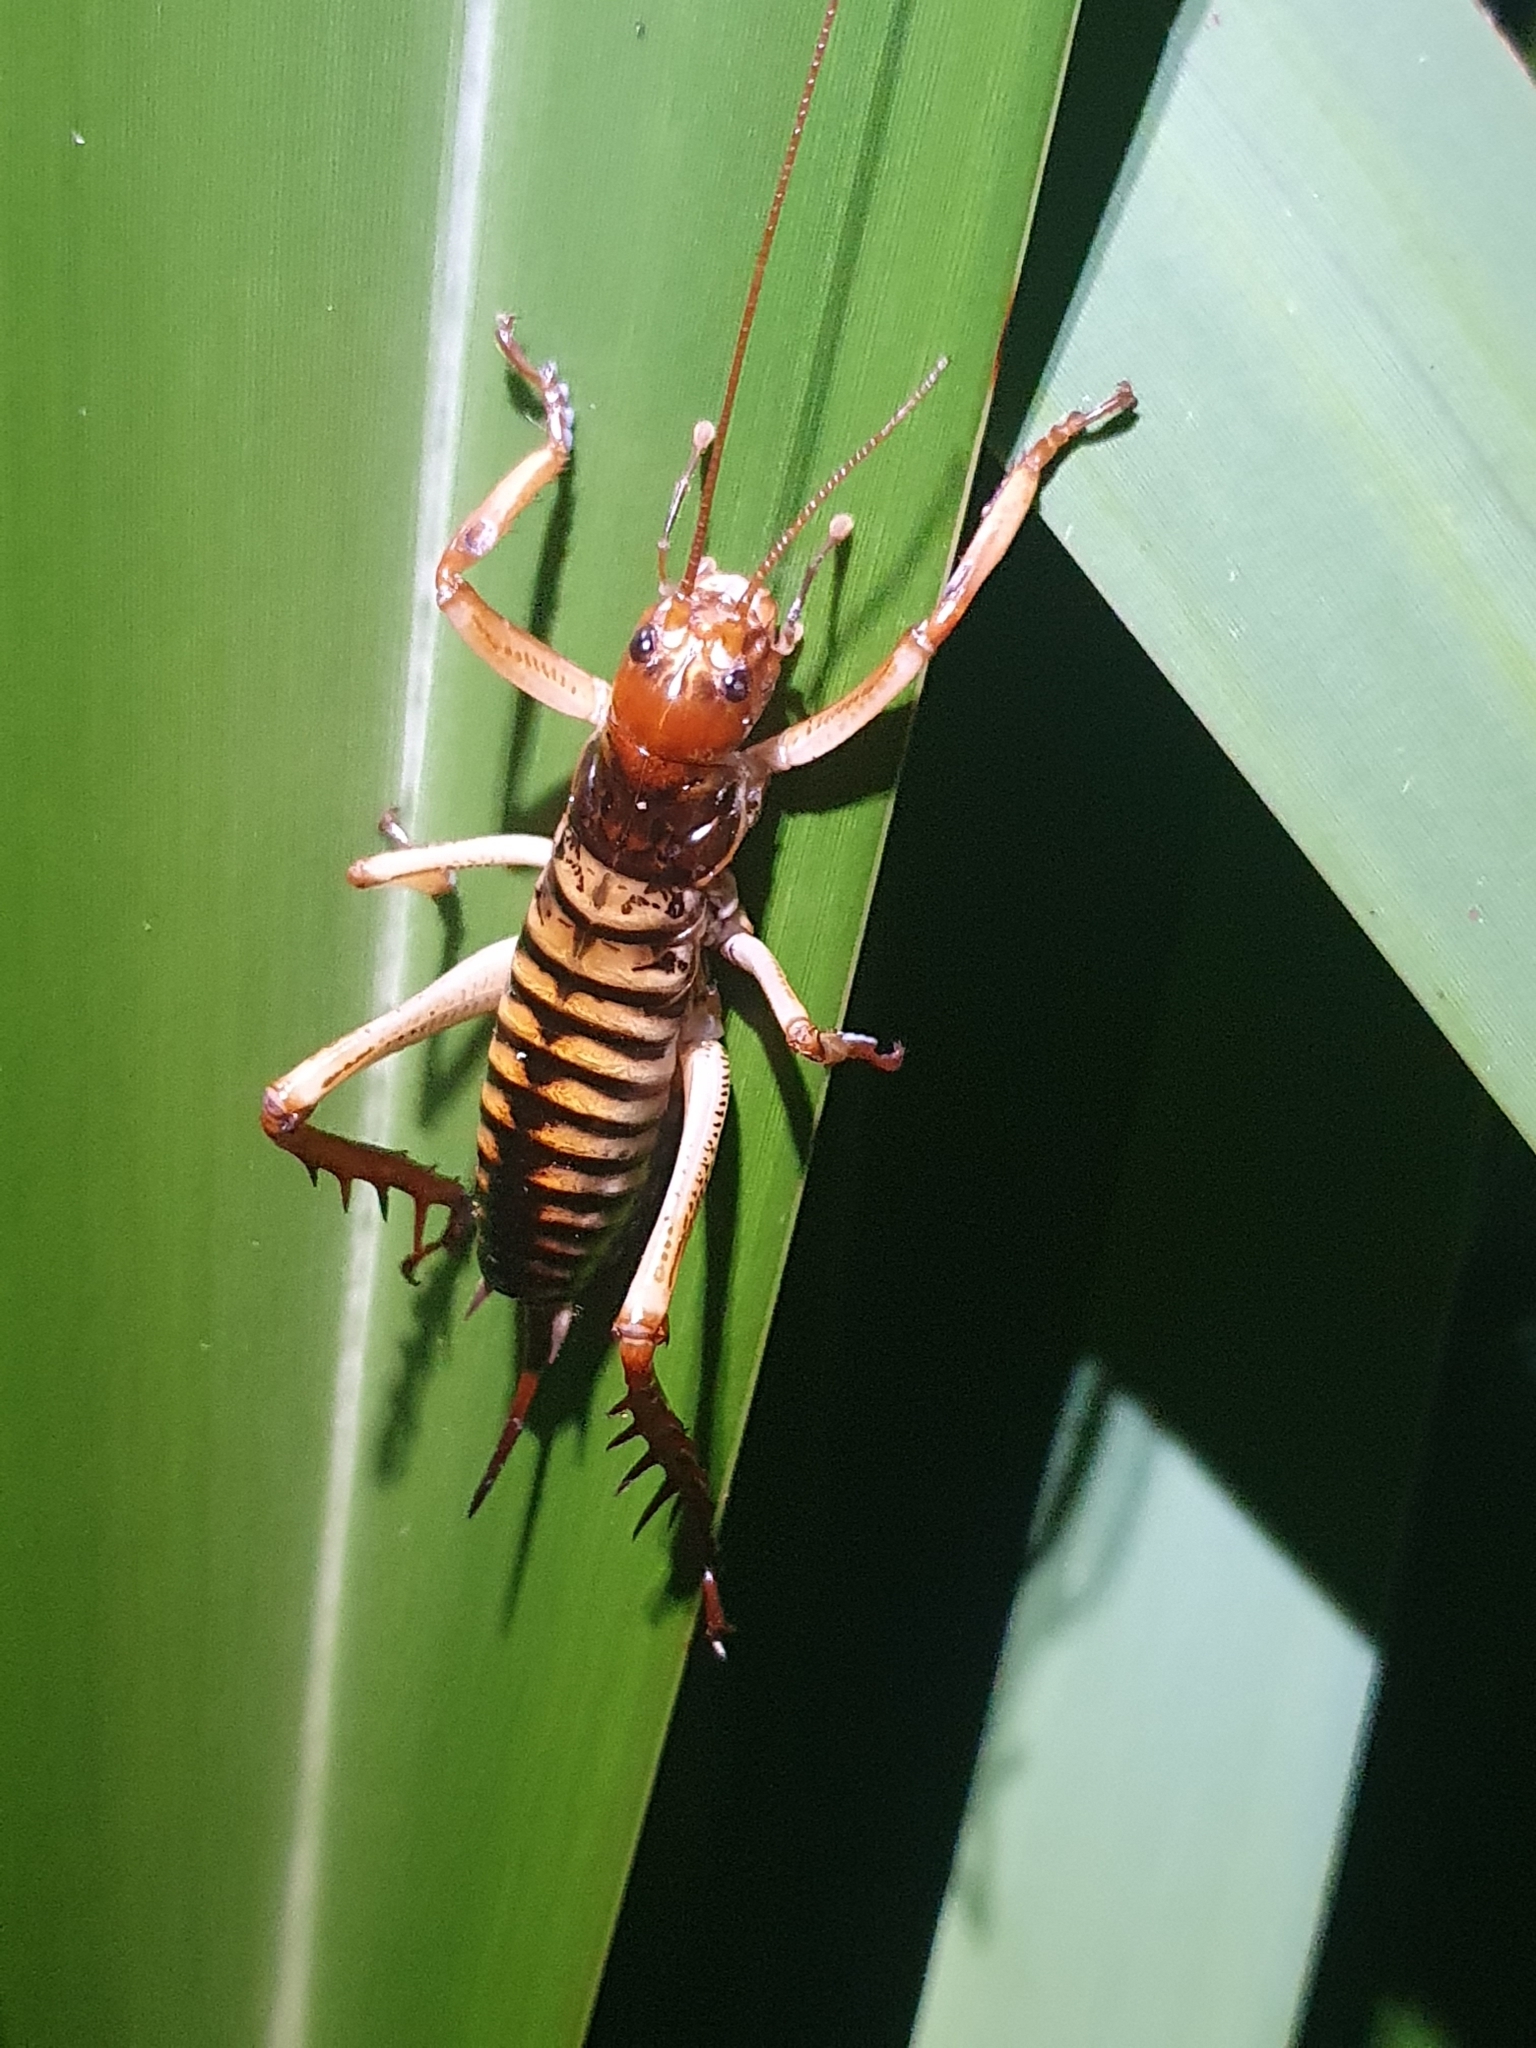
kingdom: Animalia
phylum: Arthropoda
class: Insecta
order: Orthoptera
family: Anostostomatidae
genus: Hemideina
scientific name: Hemideina crassidens
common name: Wellington tree weta
